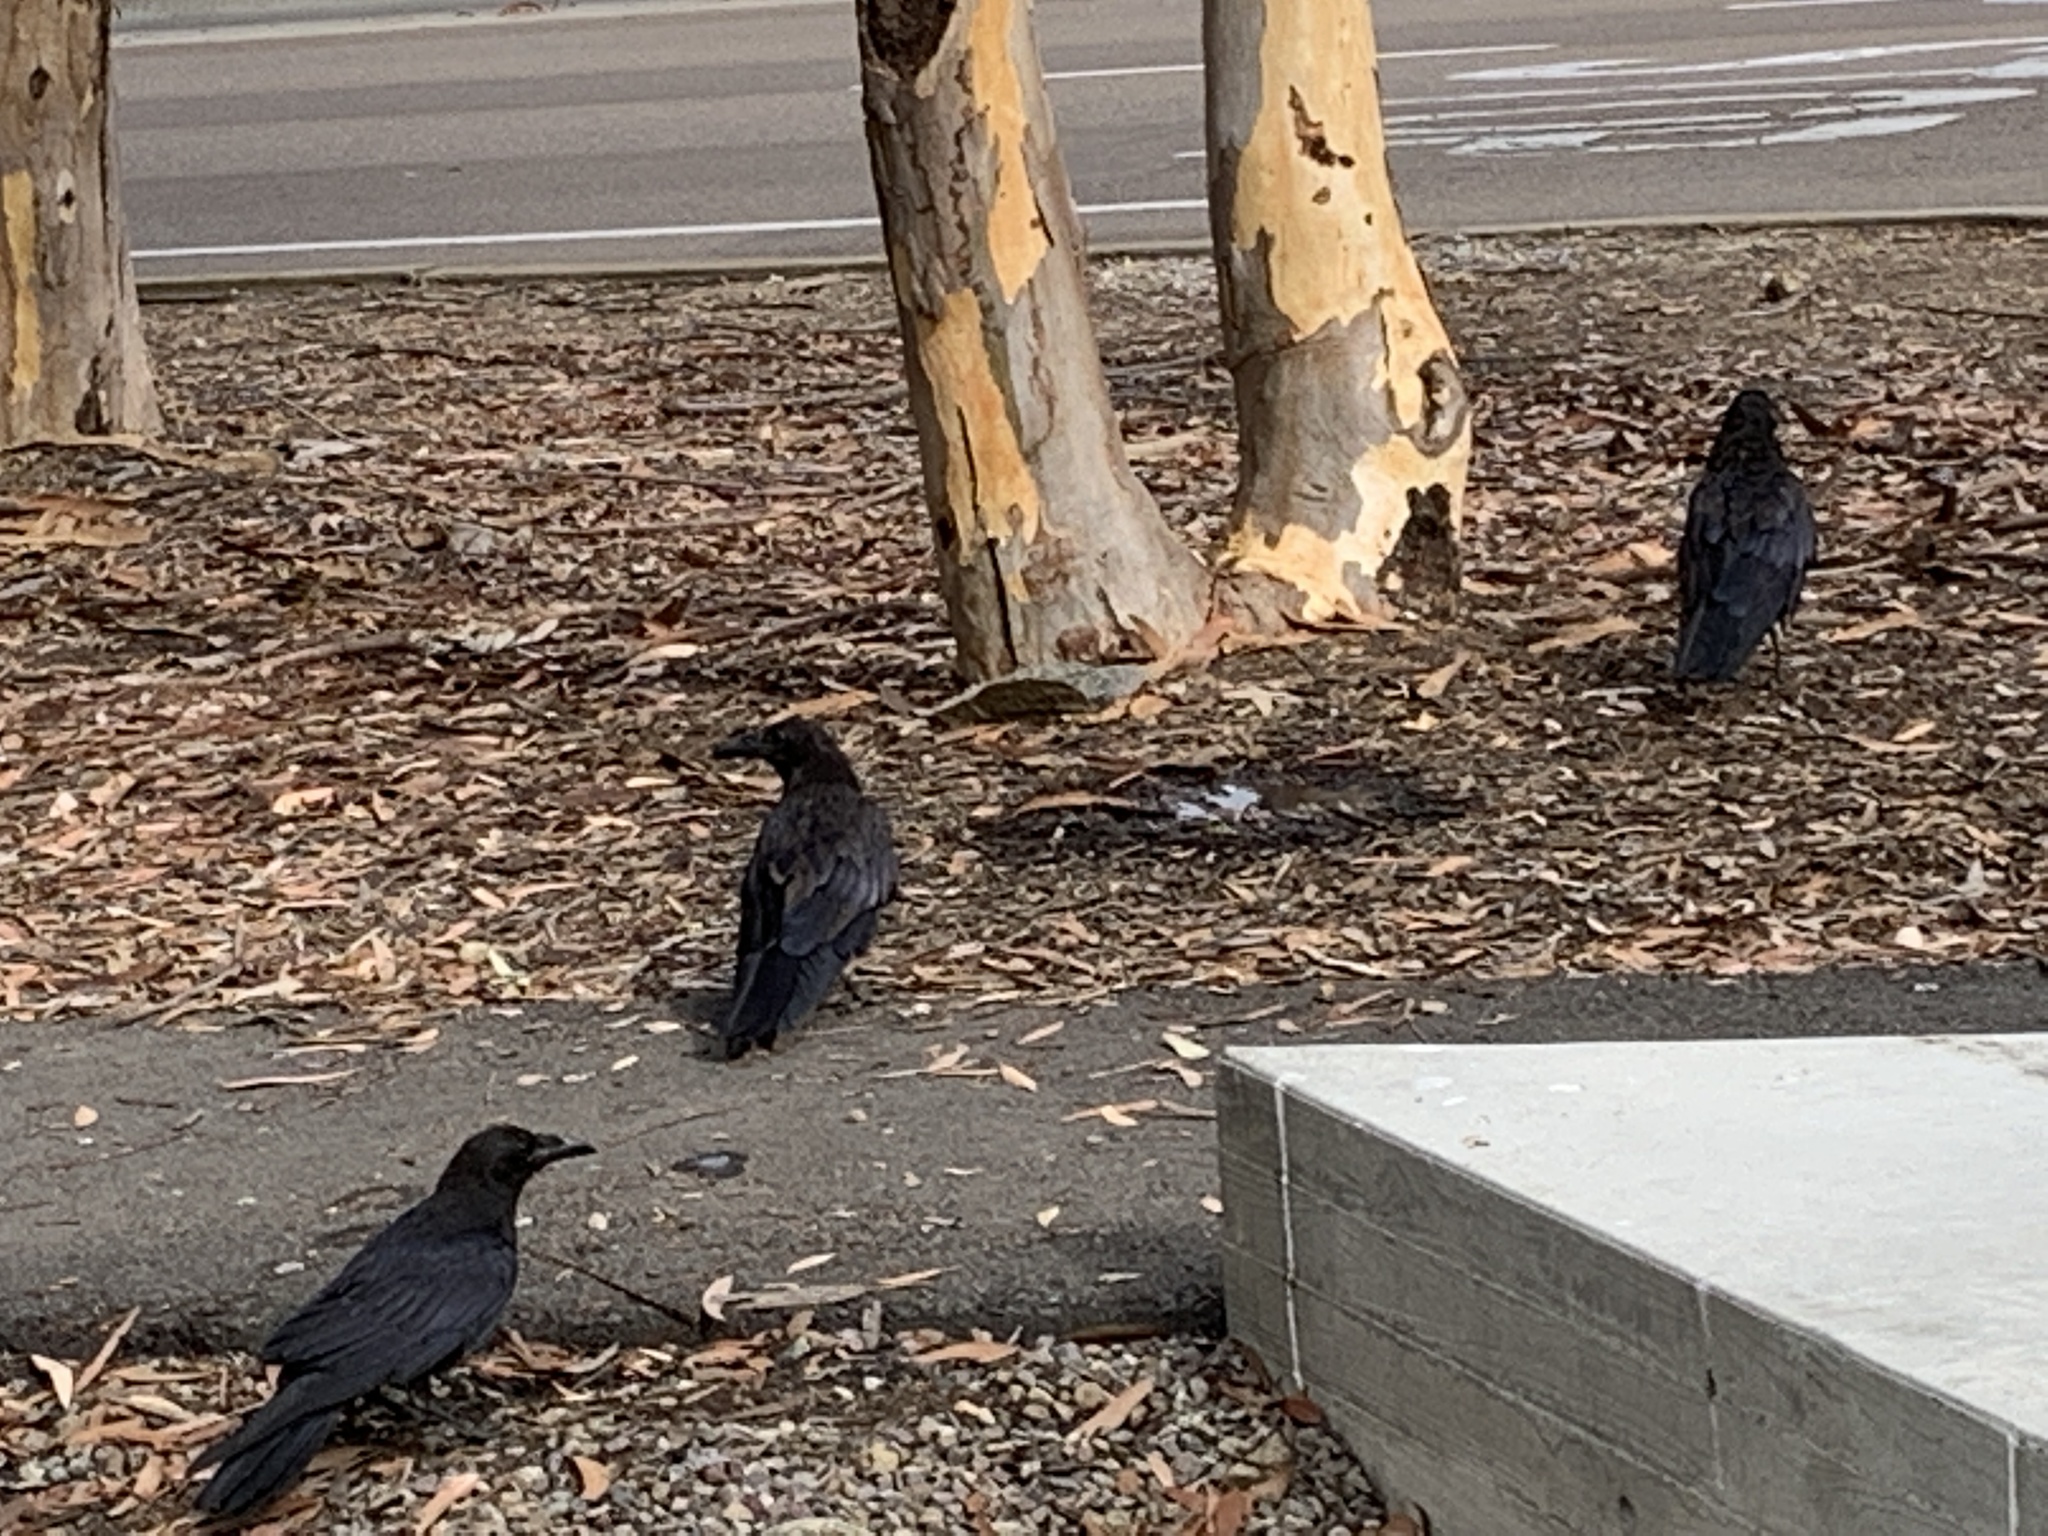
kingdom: Animalia
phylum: Chordata
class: Aves
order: Passeriformes
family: Corvidae
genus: Corvus
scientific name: Corvus brachyrhynchos
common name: American crow
